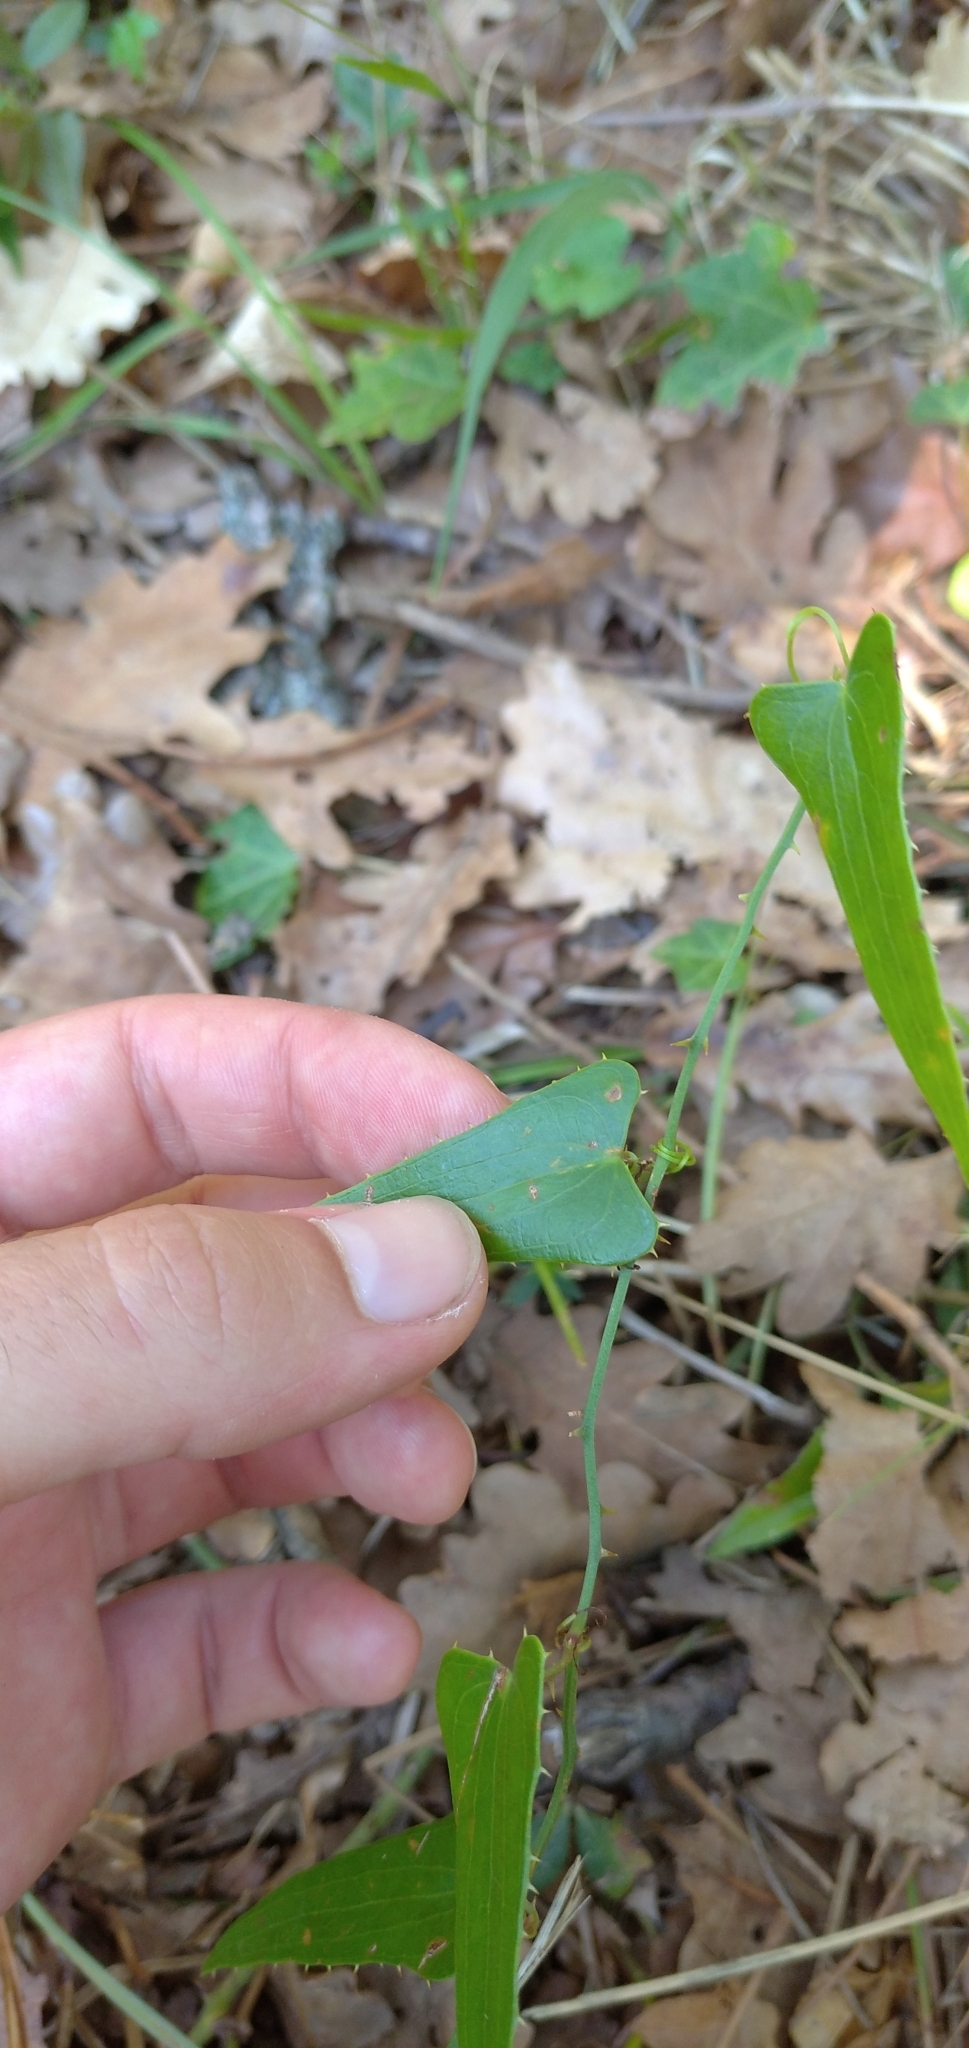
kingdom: Plantae
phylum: Tracheophyta
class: Liliopsida
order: Liliales
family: Smilacaceae
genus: Smilax
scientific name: Smilax aspera
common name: Common smilax
